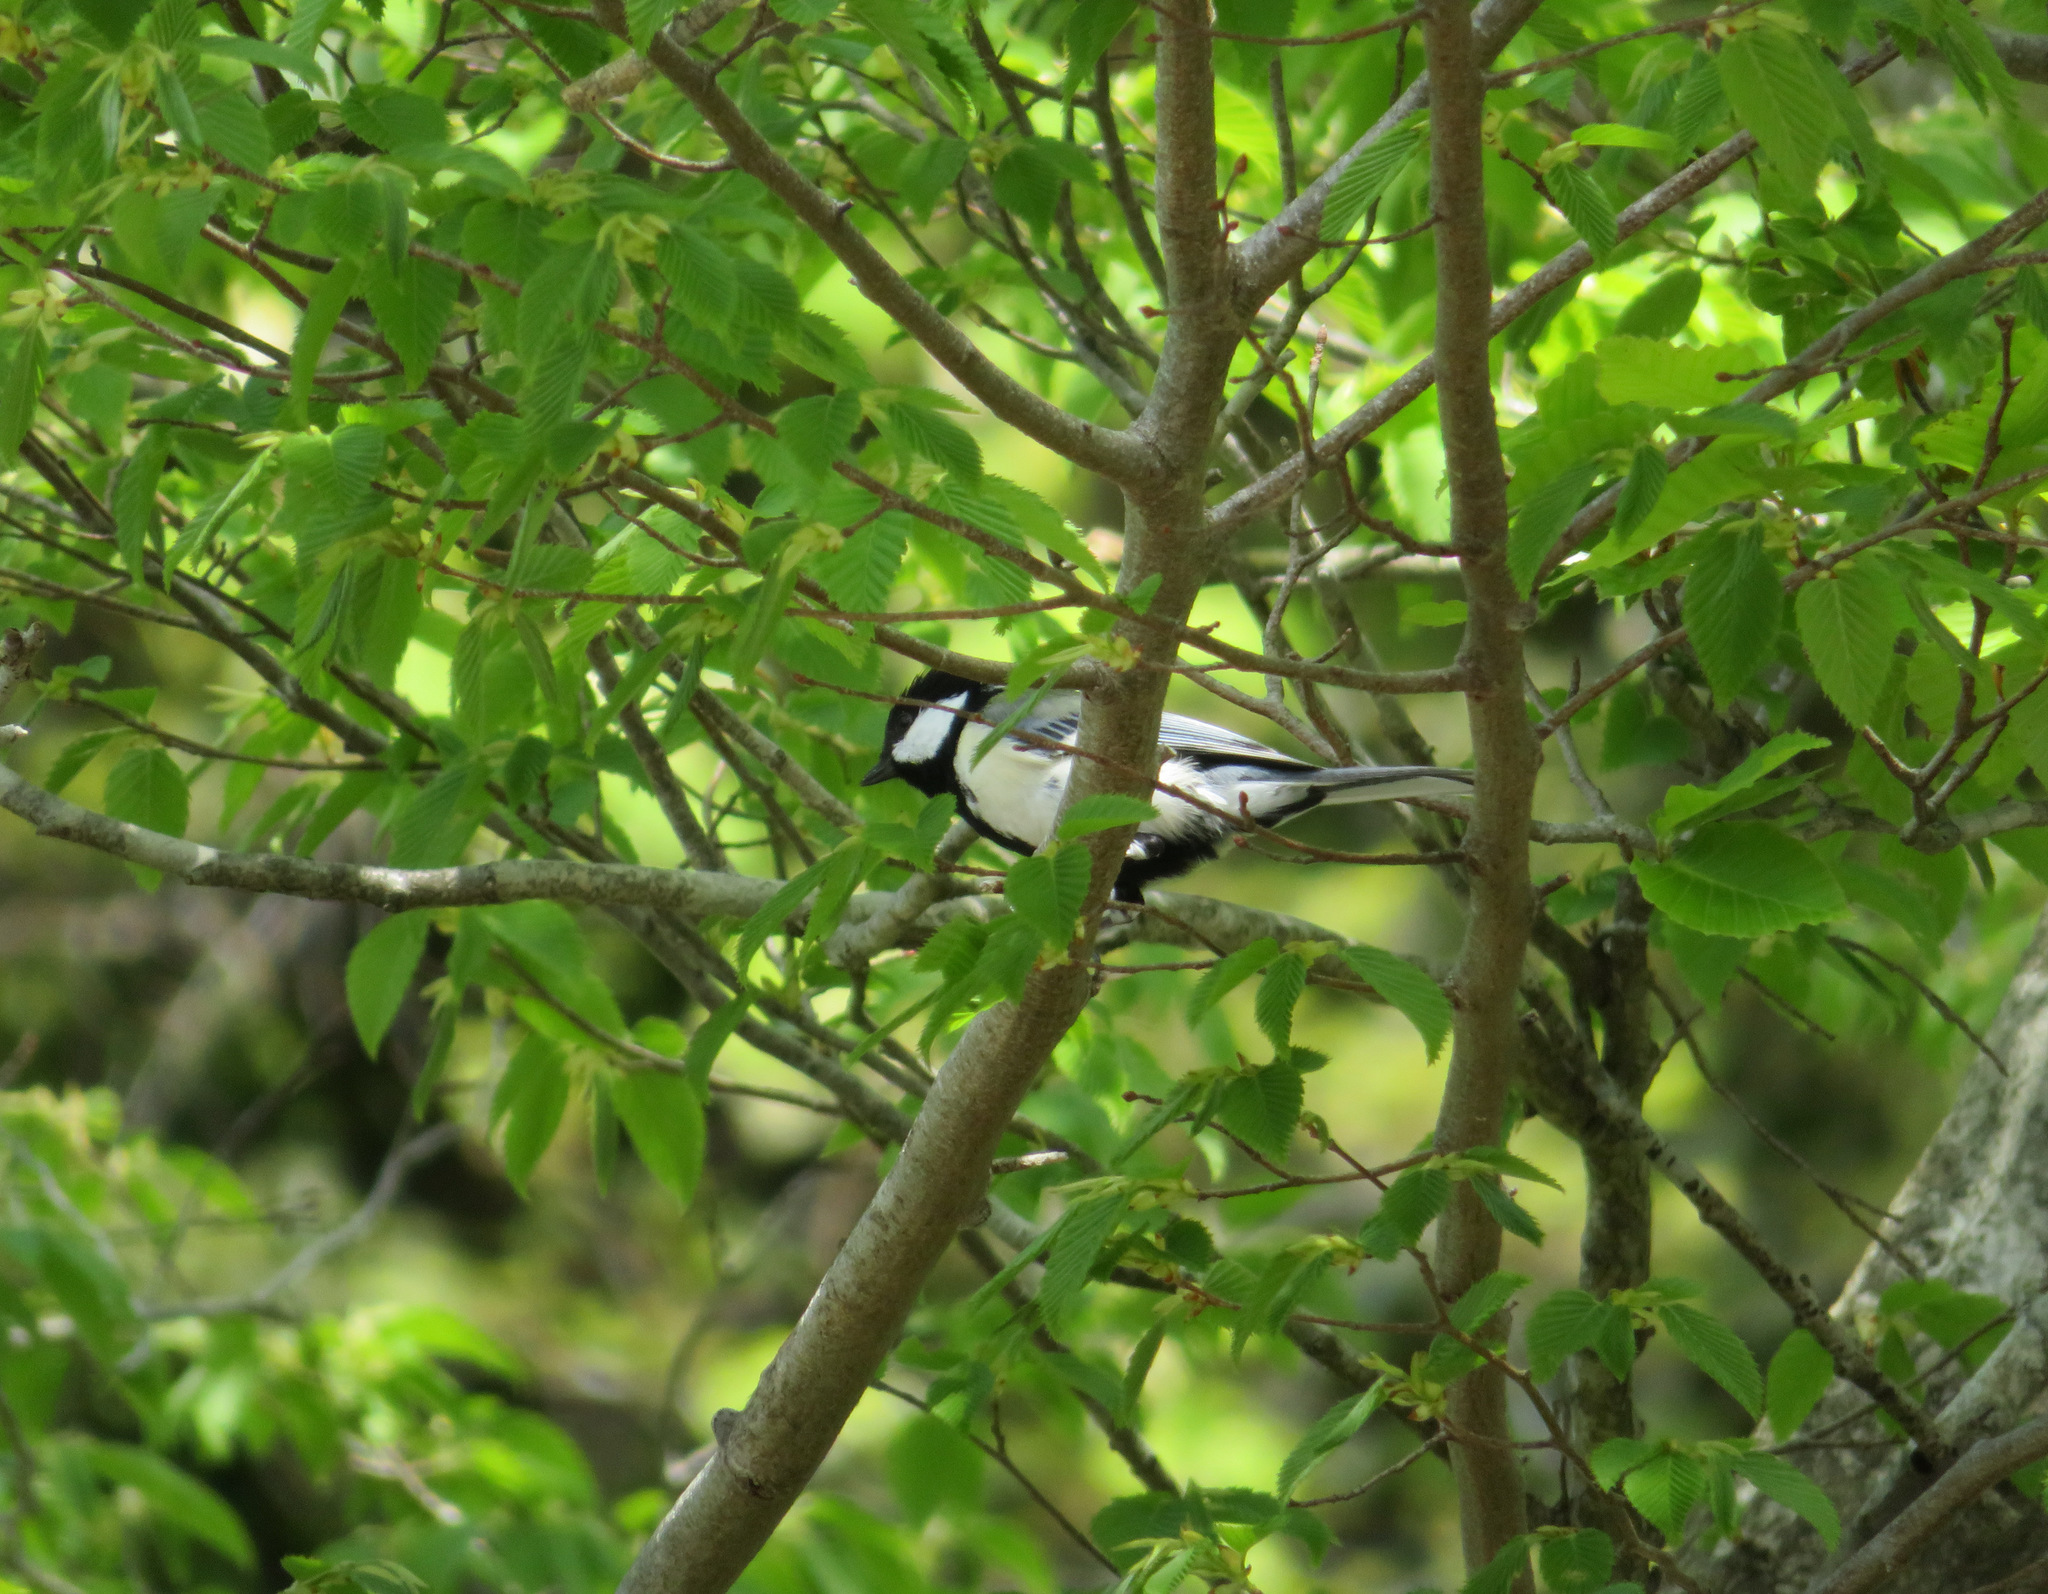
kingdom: Animalia
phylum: Chordata
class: Aves
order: Passeriformes
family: Paridae
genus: Parus
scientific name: Parus minor
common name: Japanese tit
